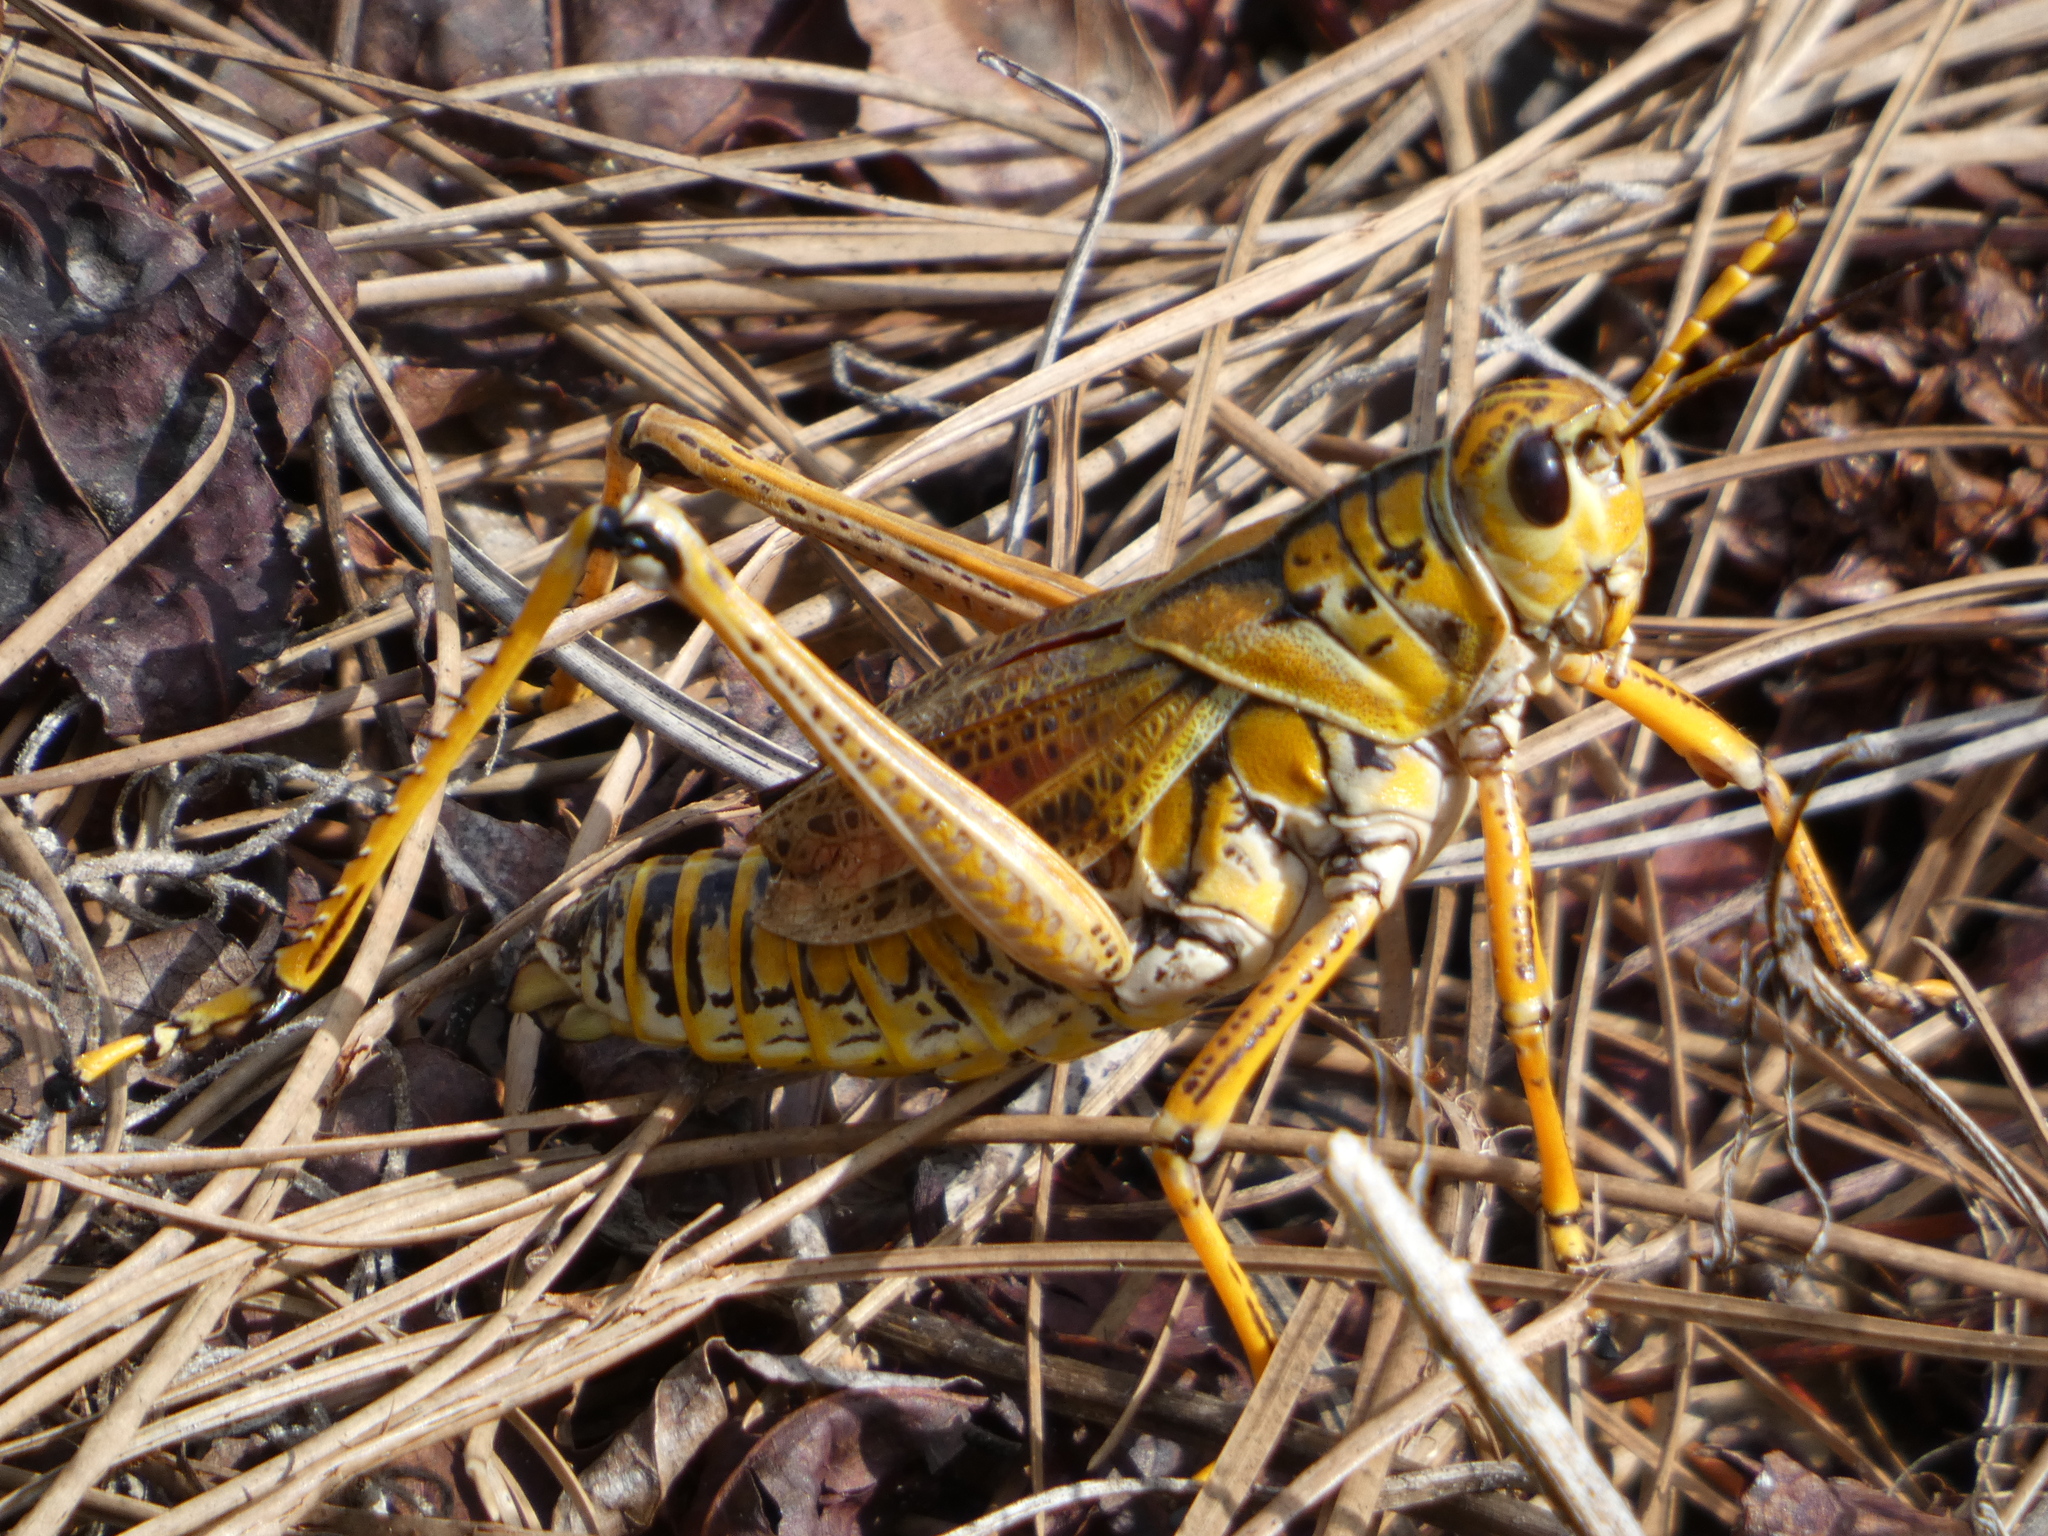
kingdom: Animalia
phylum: Arthropoda
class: Insecta
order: Lepidoptera
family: Nymphalidae
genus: Danaus
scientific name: Danaus plexippus
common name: Monarch
